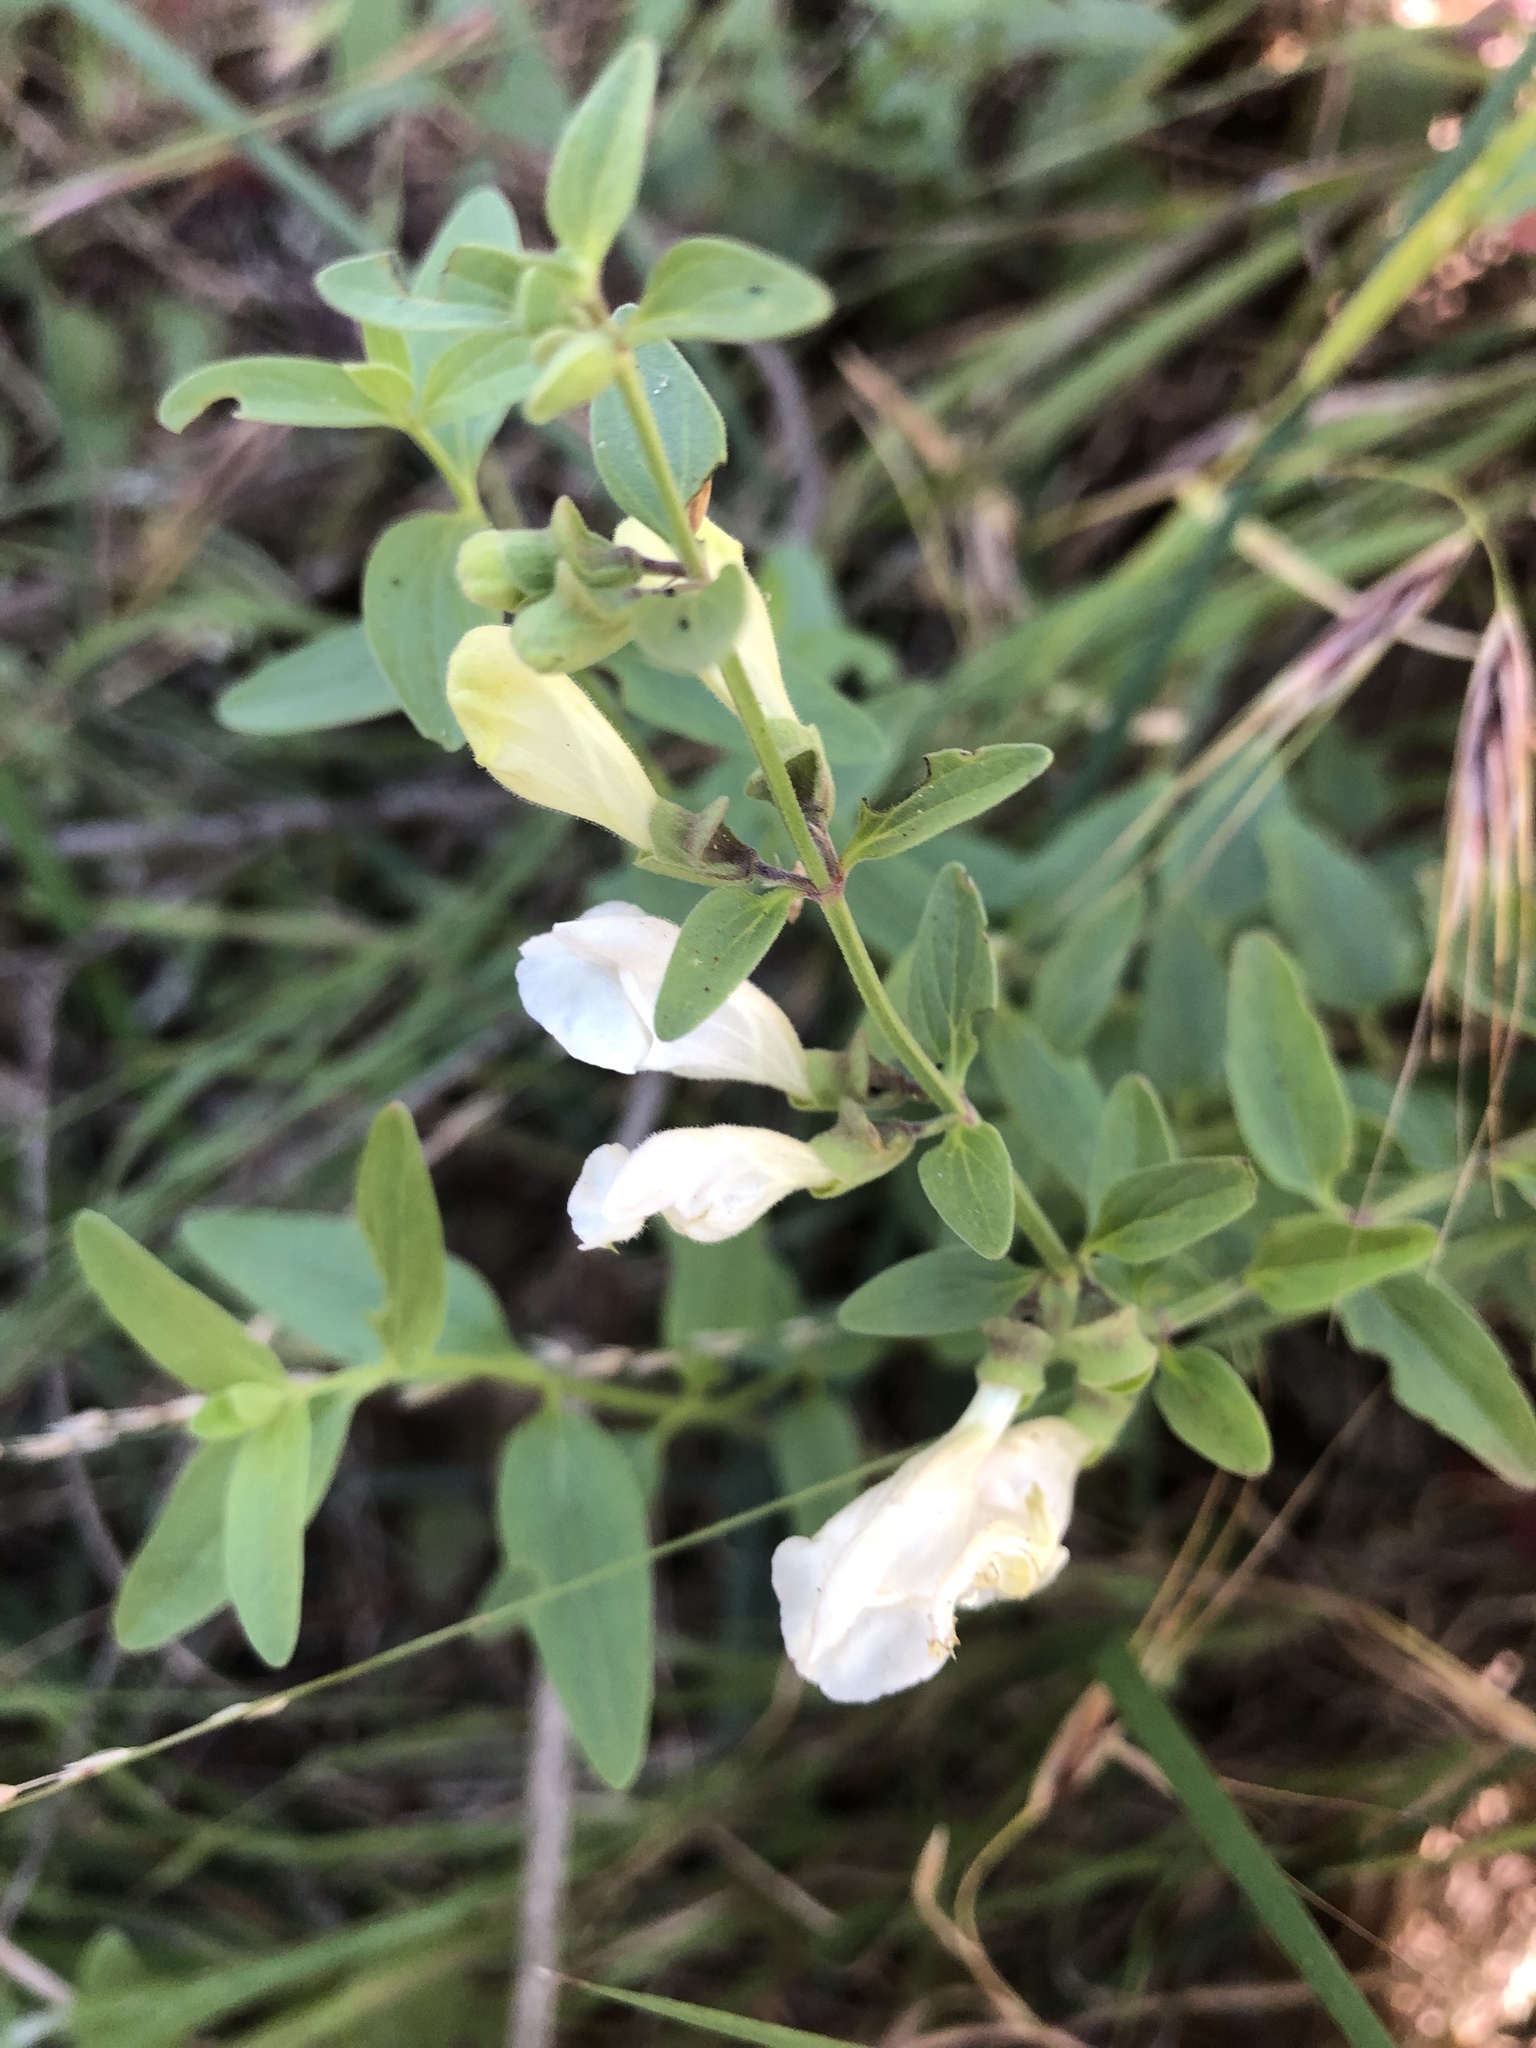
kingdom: Plantae
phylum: Tracheophyta
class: Magnoliopsida
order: Lamiales
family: Lamiaceae
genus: Scutellaria
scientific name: Scutellaria californica
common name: California scullcap
